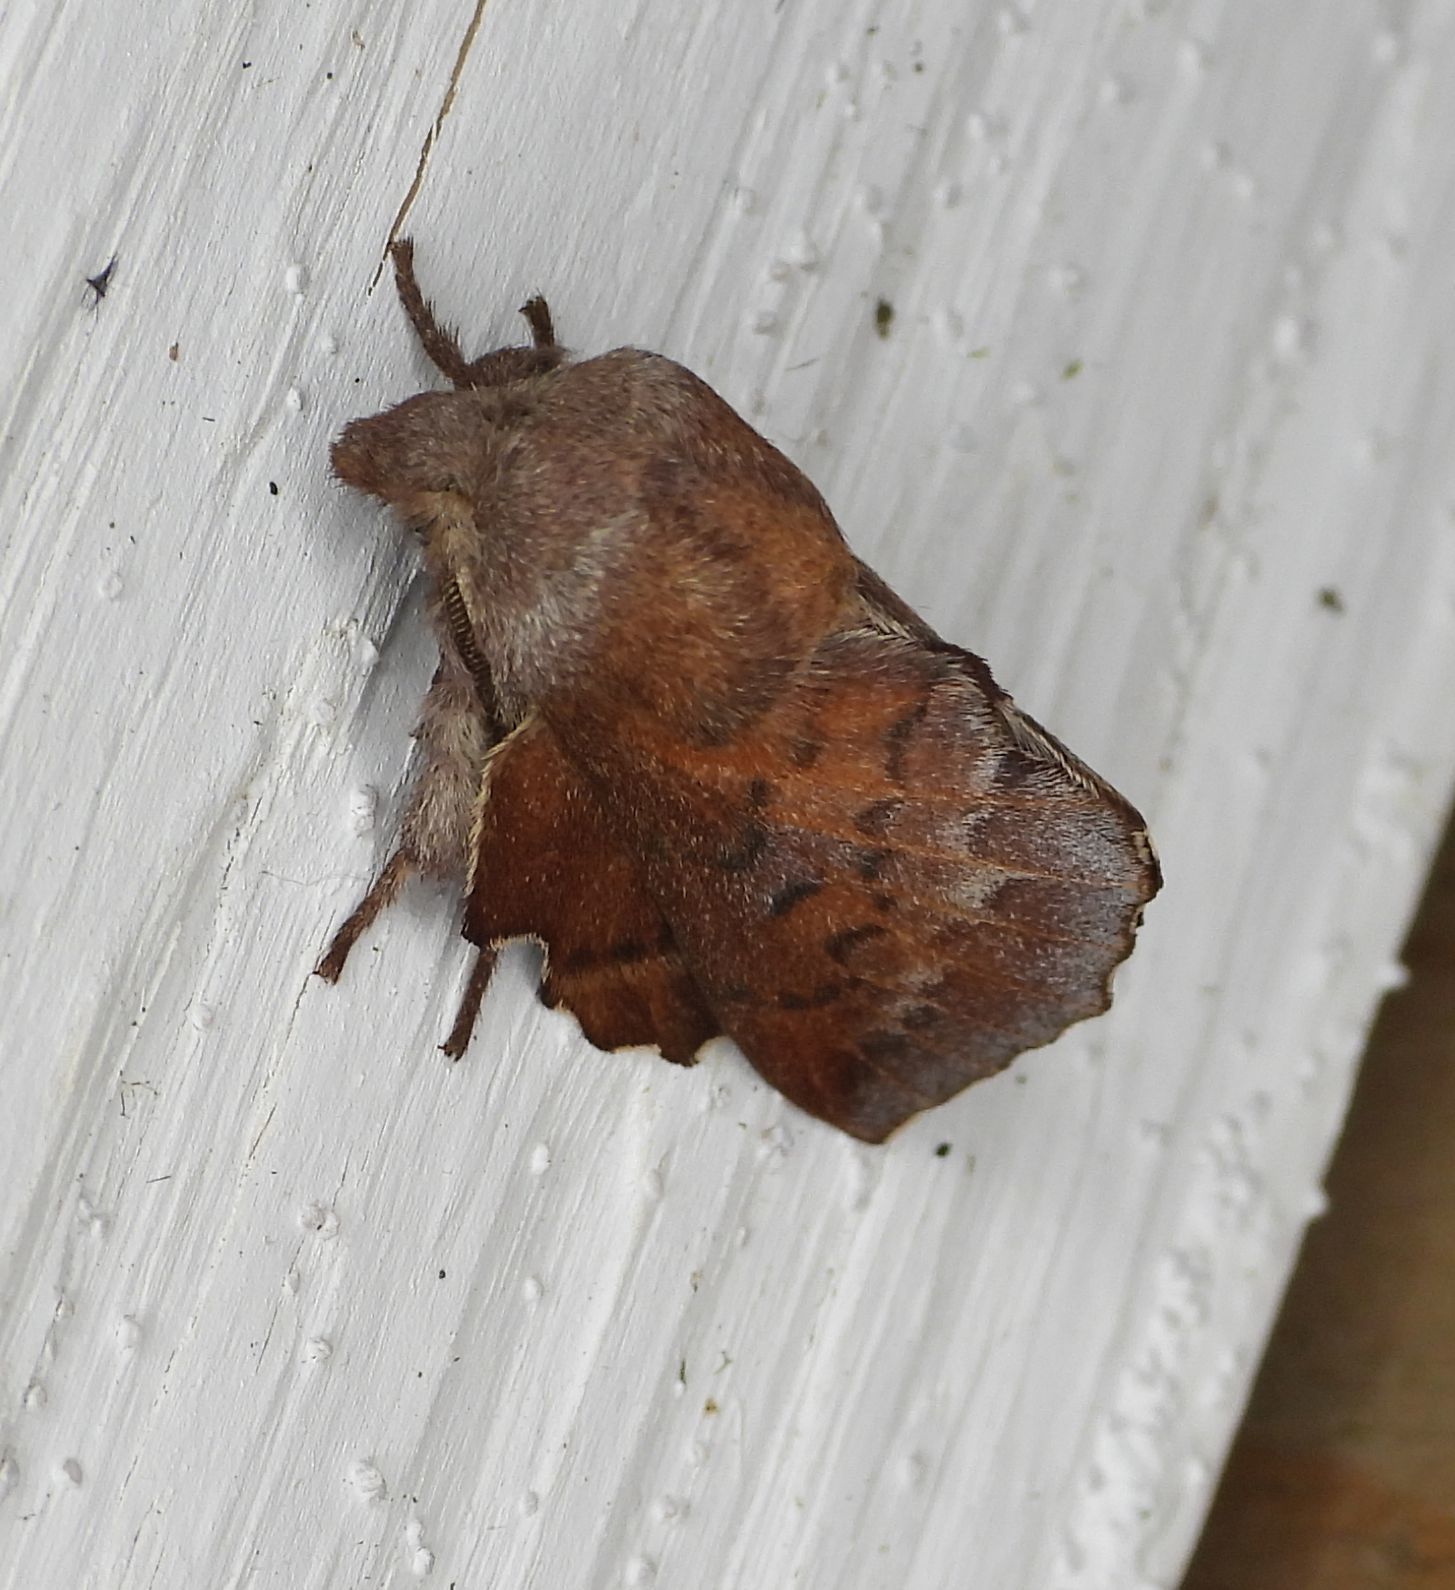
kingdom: Animalia
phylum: Arthropoda
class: Insecta
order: Lepidoptera
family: Lasiocampidae
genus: Phyllodesma
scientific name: Phyllodesma americana
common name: American lappet moth
